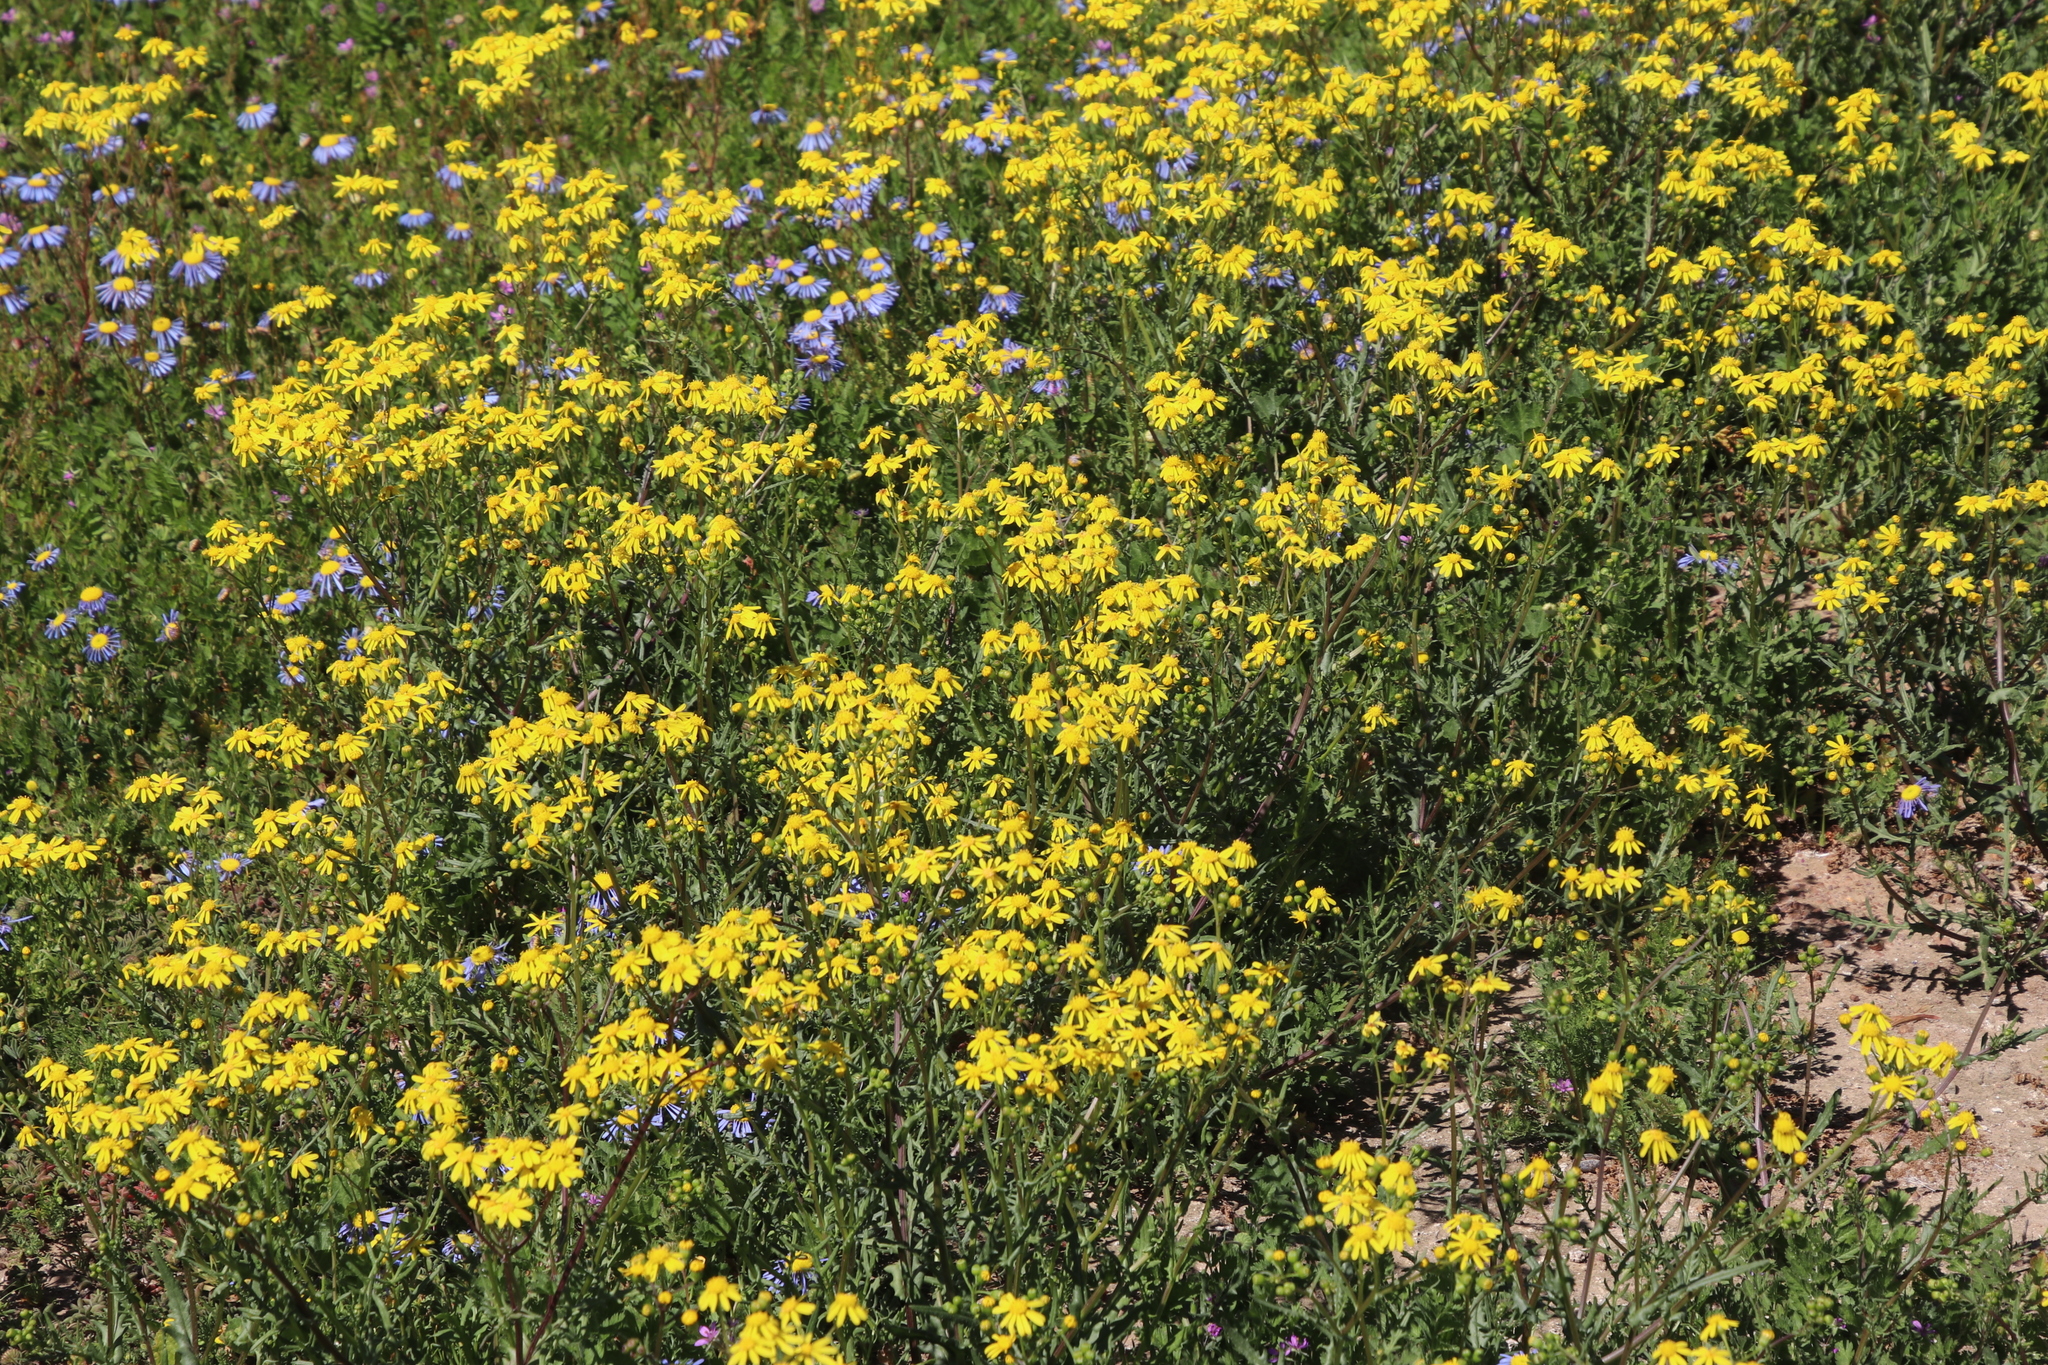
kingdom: Plantae
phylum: Tracheophyta
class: Magnoliopsida
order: Asterales
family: Asteraceae
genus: Senecio
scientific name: Senecio abruptus
